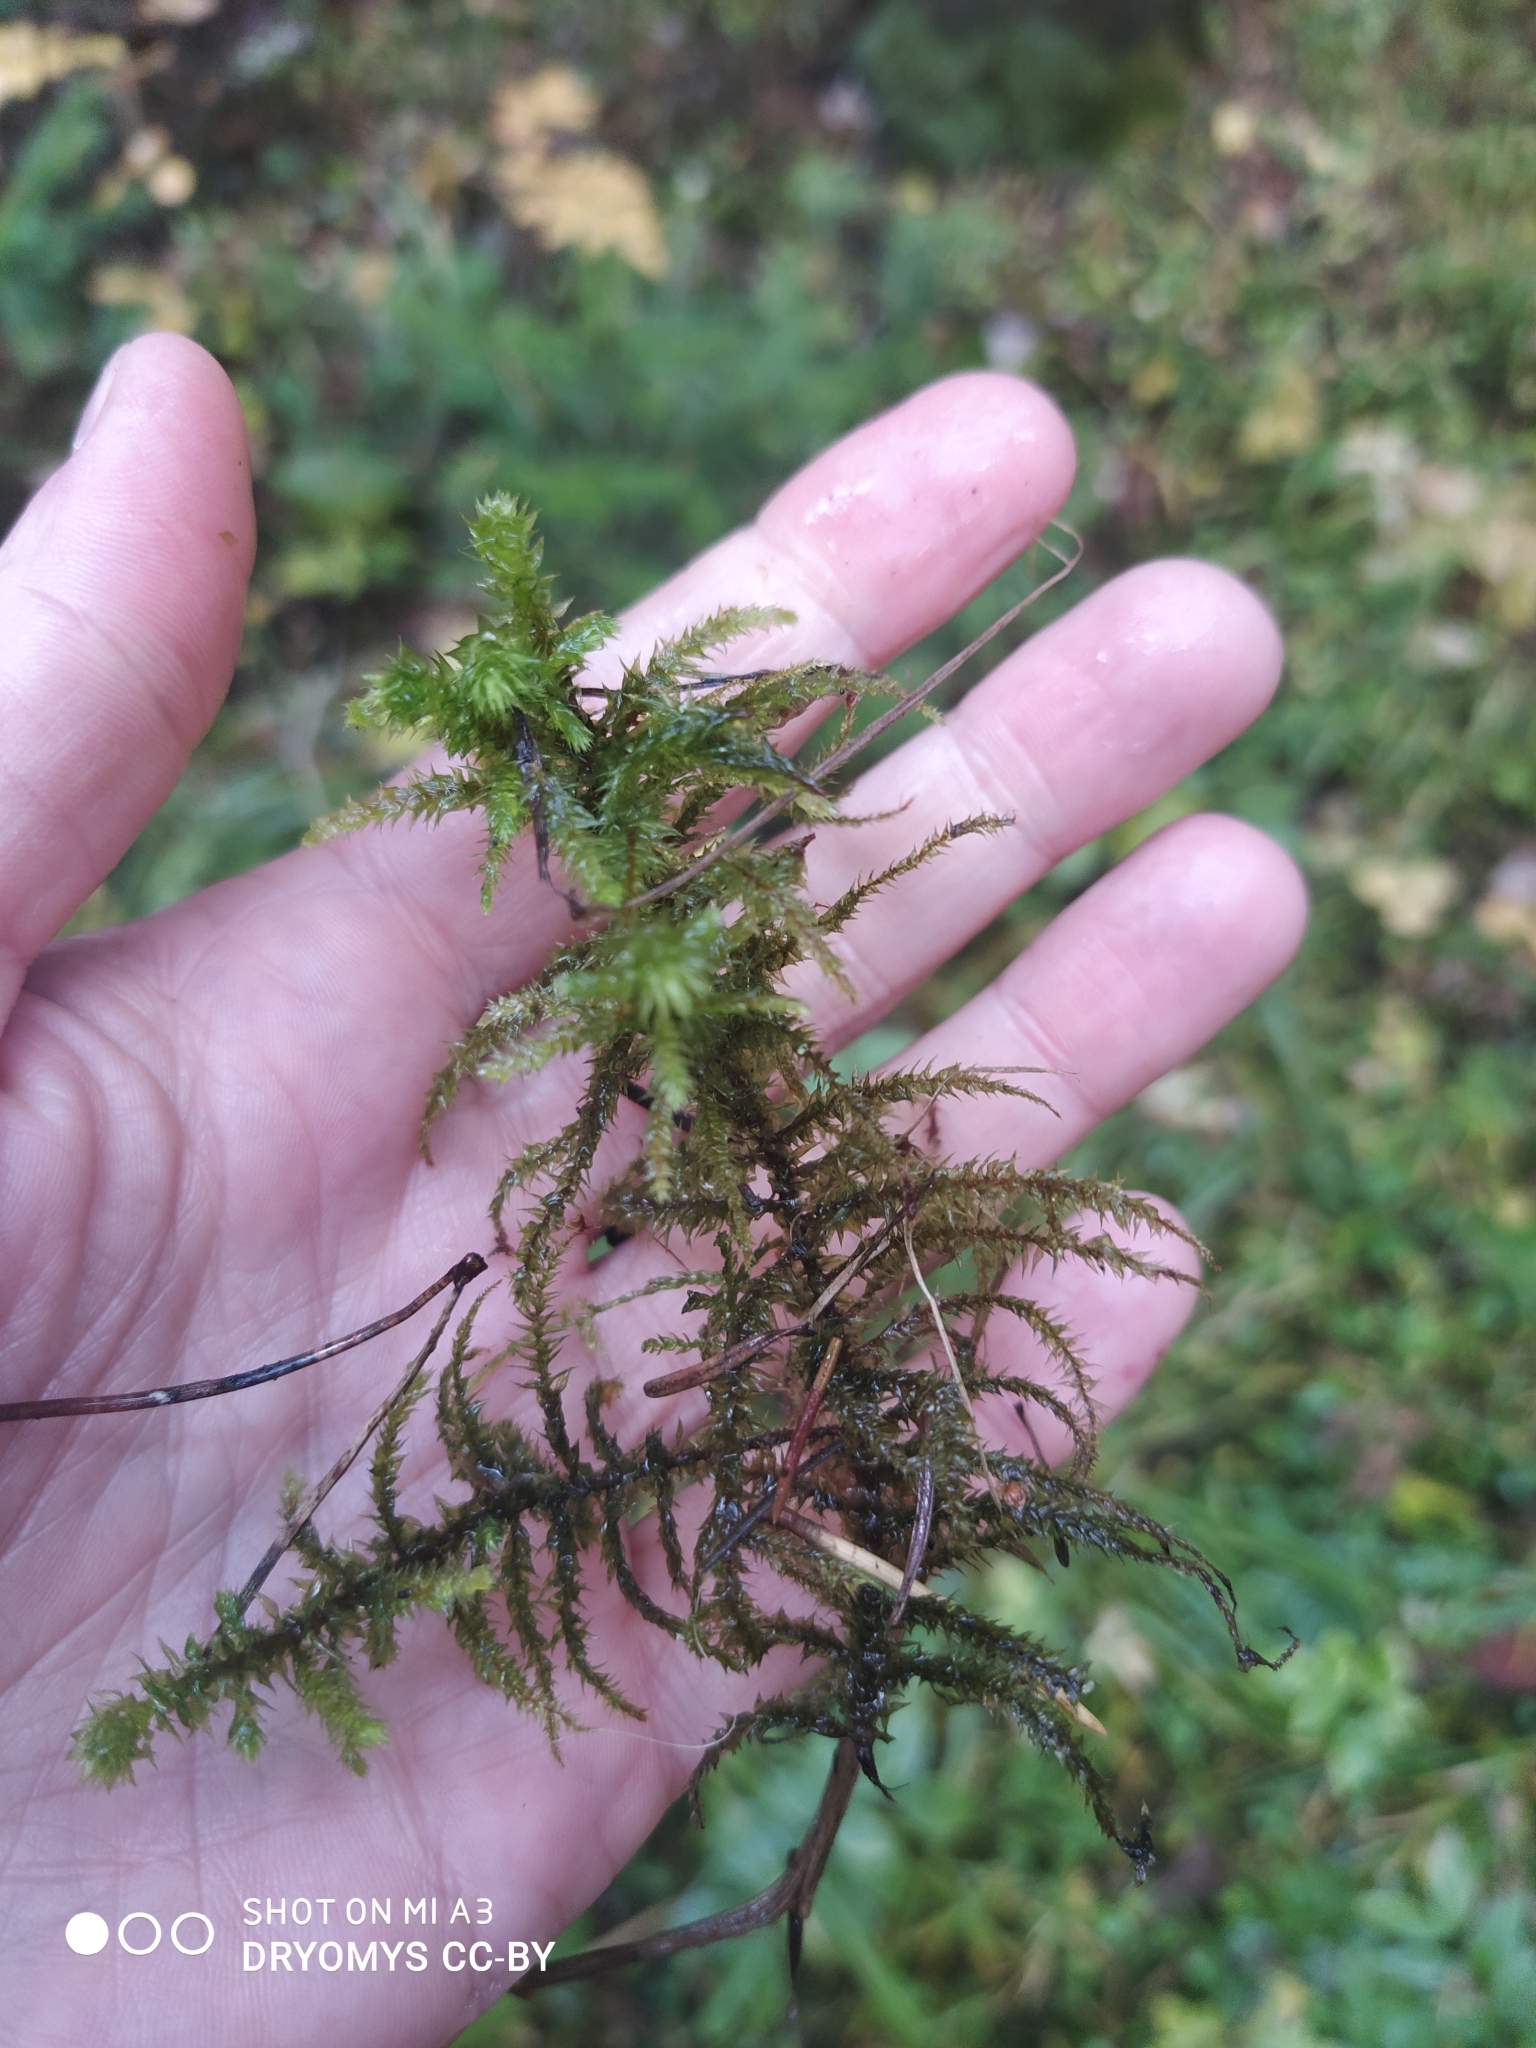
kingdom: Plantae
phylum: Bryophyta
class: Bryopsida
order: Hypnales
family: Hylocomiaceae
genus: Hylocomiadelphus
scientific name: Hylocomiadelphus triquetrus
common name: Rough goose neck moss
